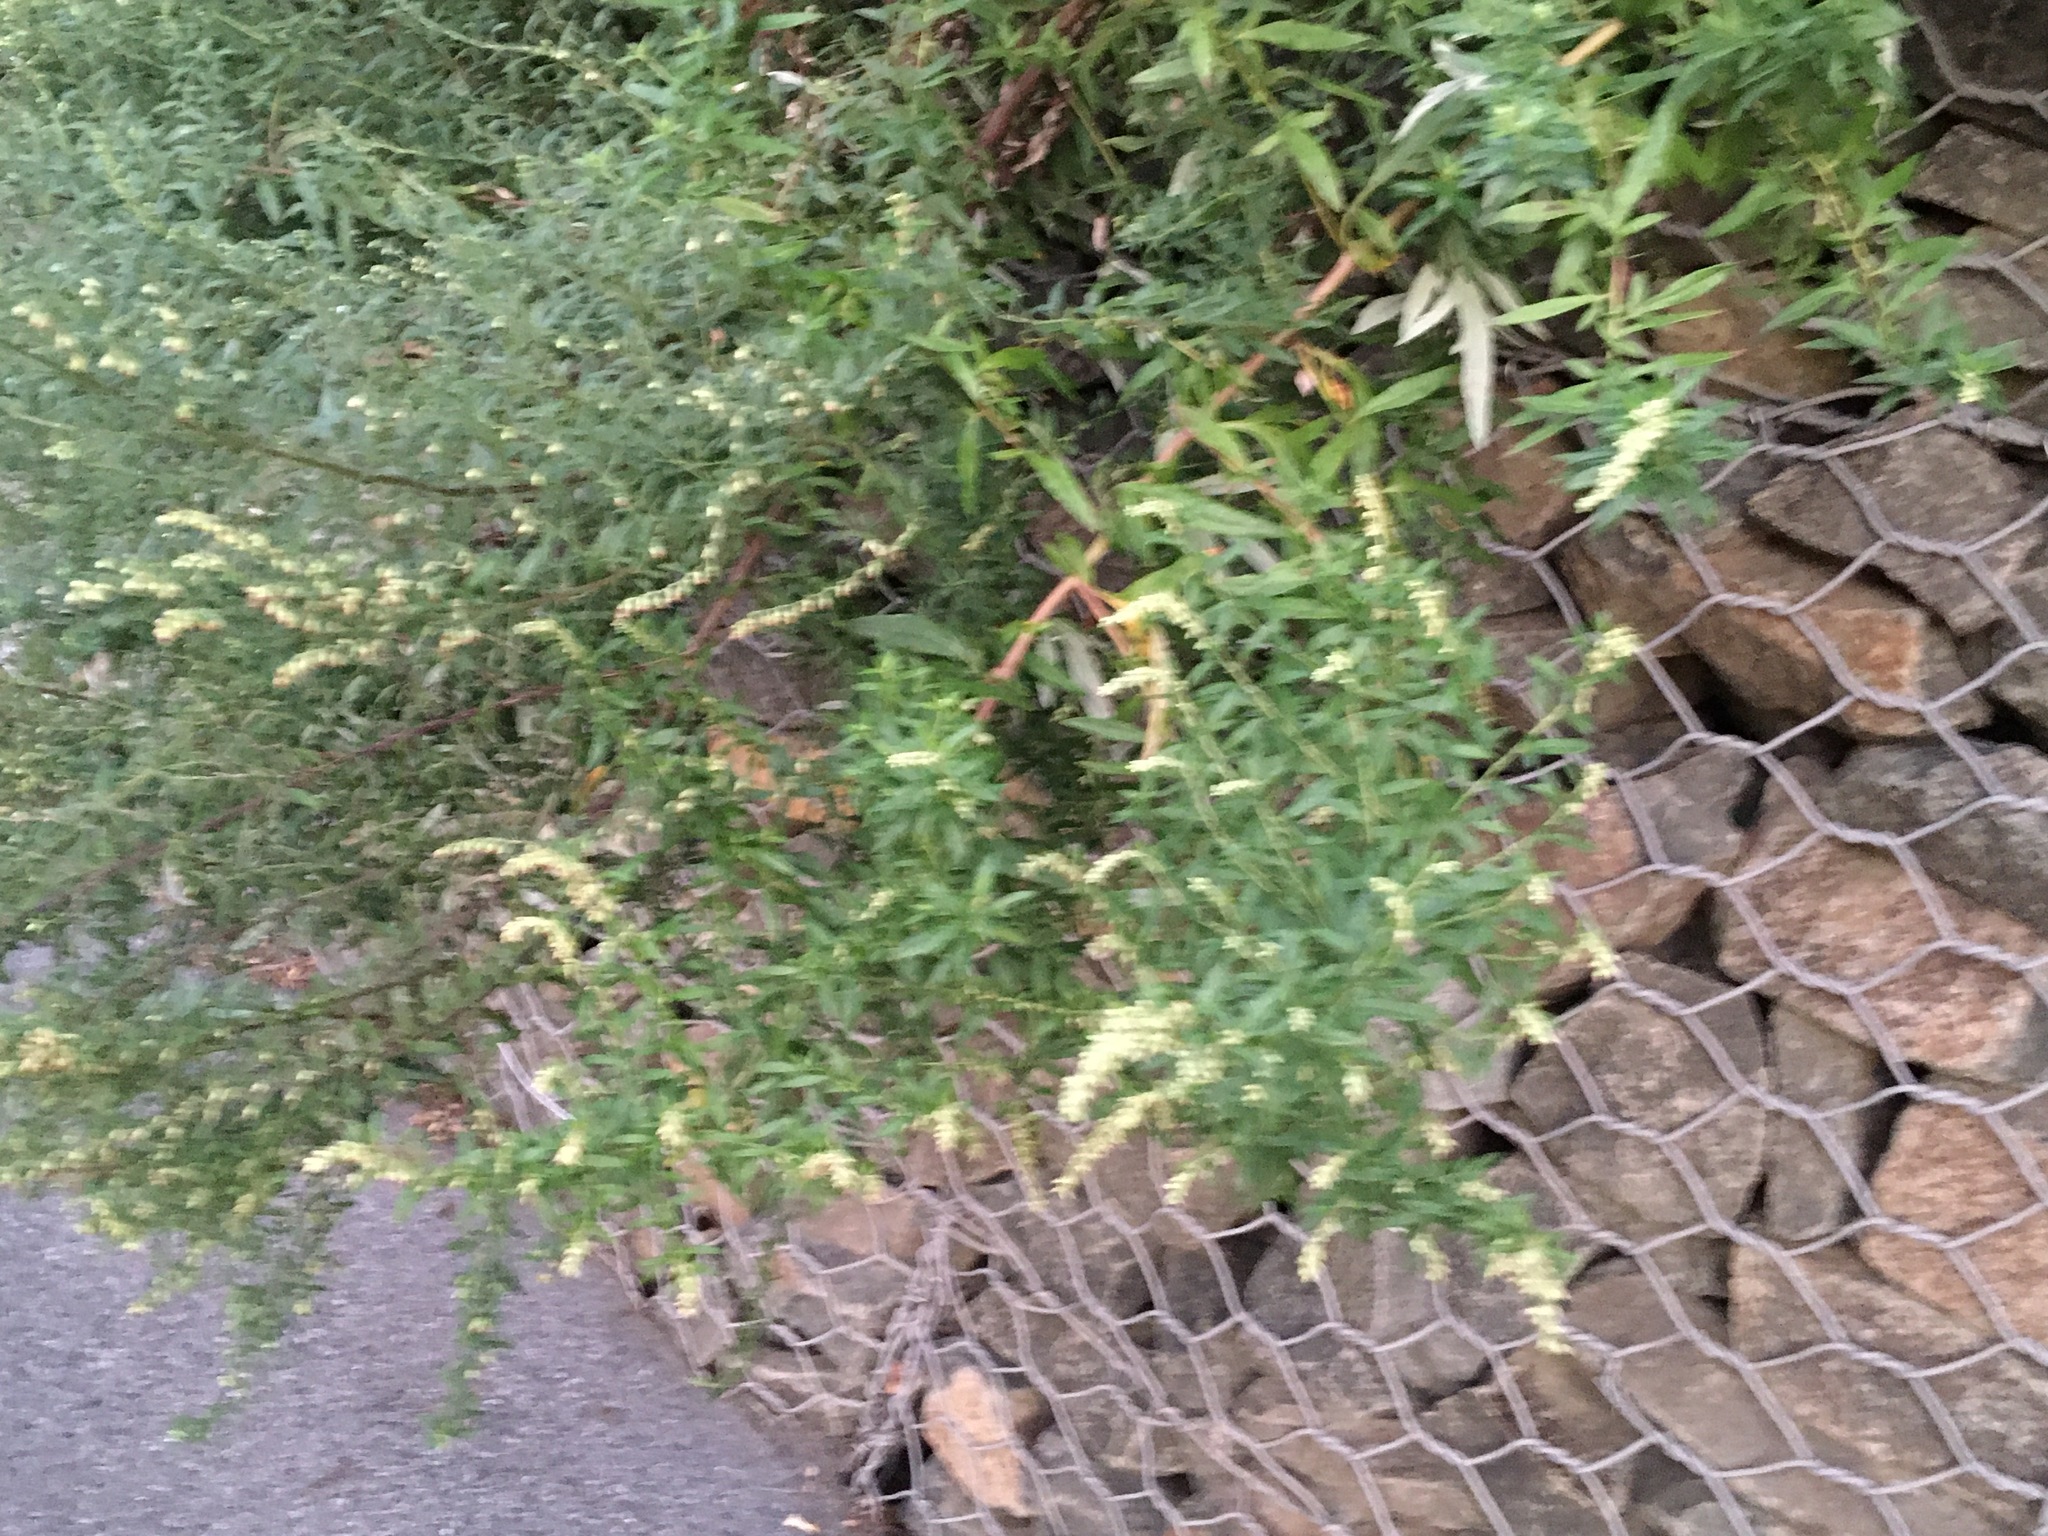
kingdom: Plantae
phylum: Tracheophyta
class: Magnoliopsida
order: Asterales
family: Asteraceae
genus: Artemisia
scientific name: Artemisia vulgaris
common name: Mugwort
